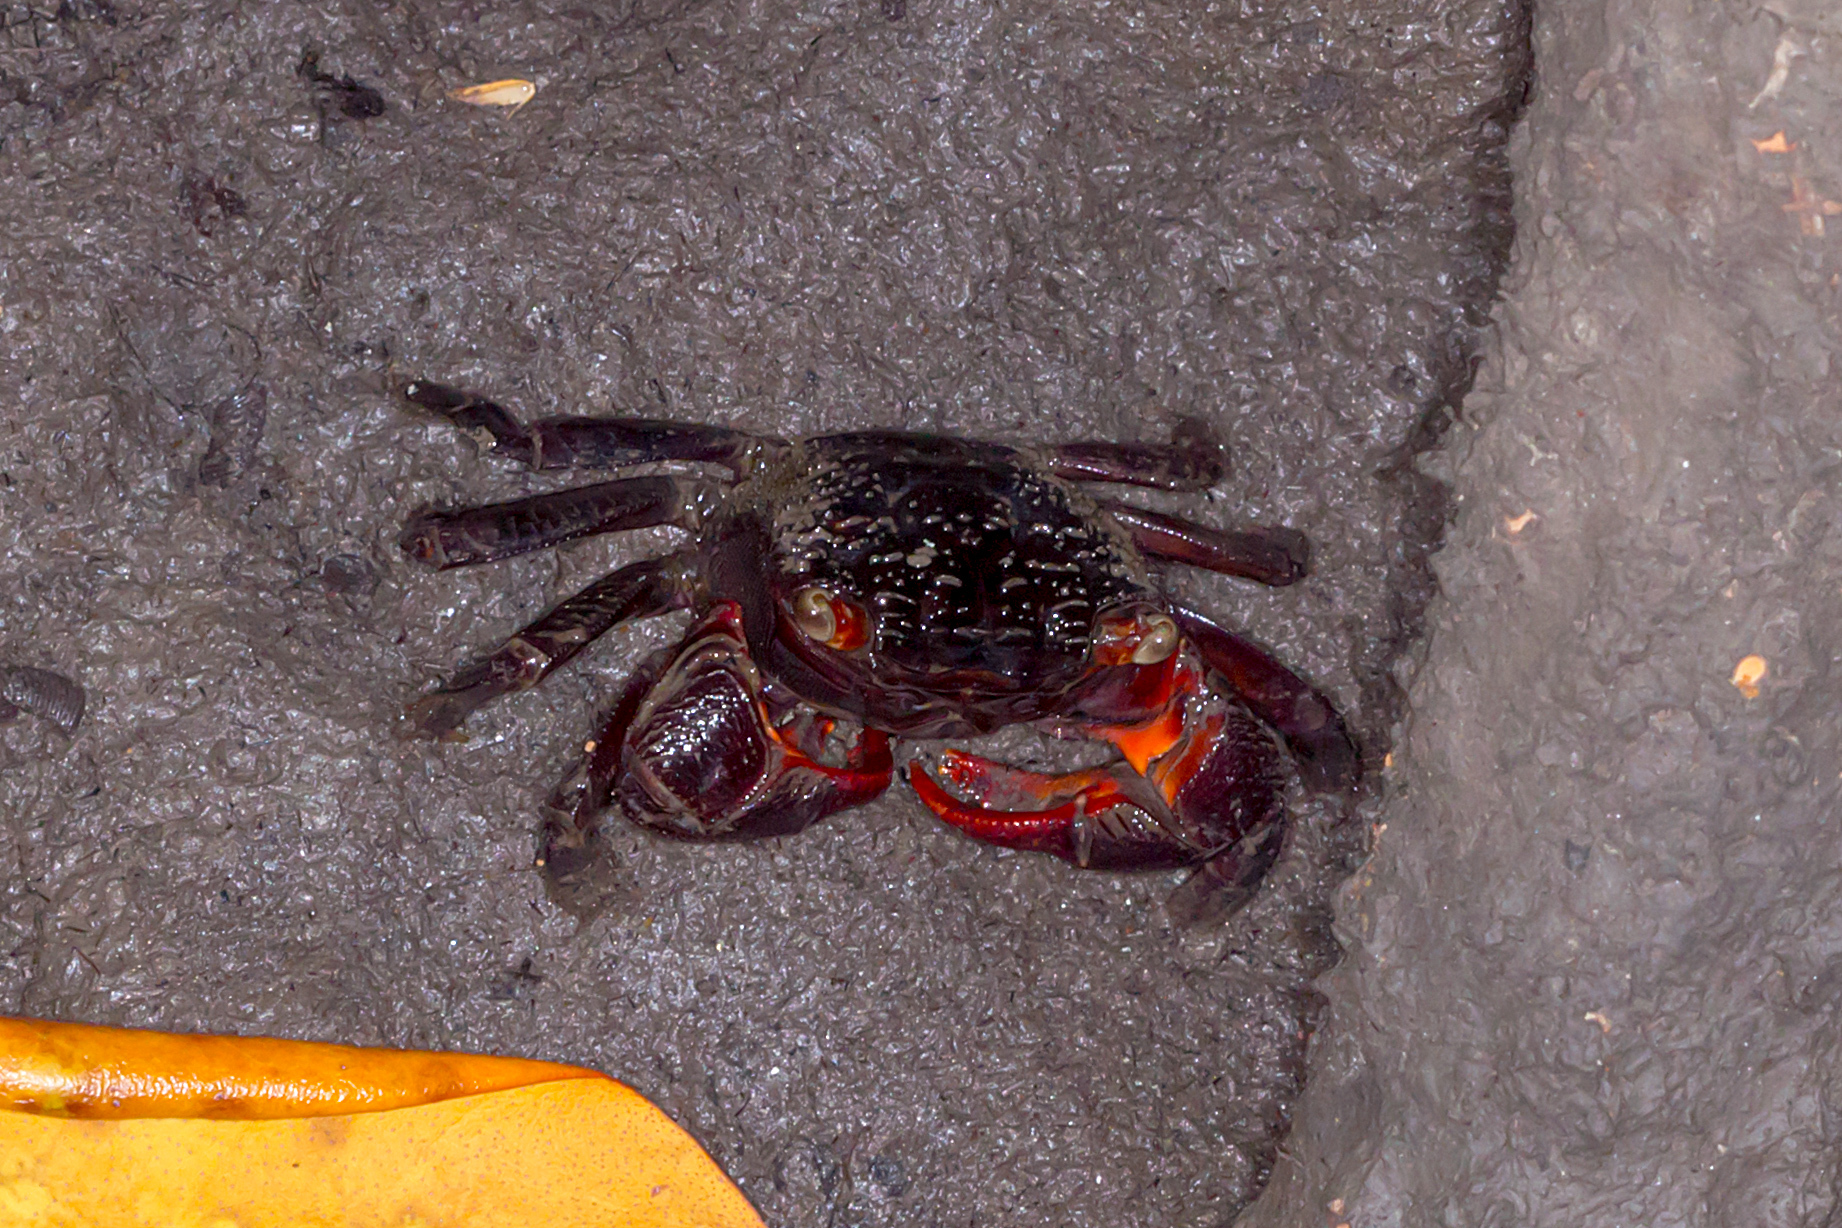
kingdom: Animalia
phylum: Arthropoda
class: Malacostraca
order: Decapoda
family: Sesarmidae
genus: Parasesarma
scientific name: Parasesarma messa
